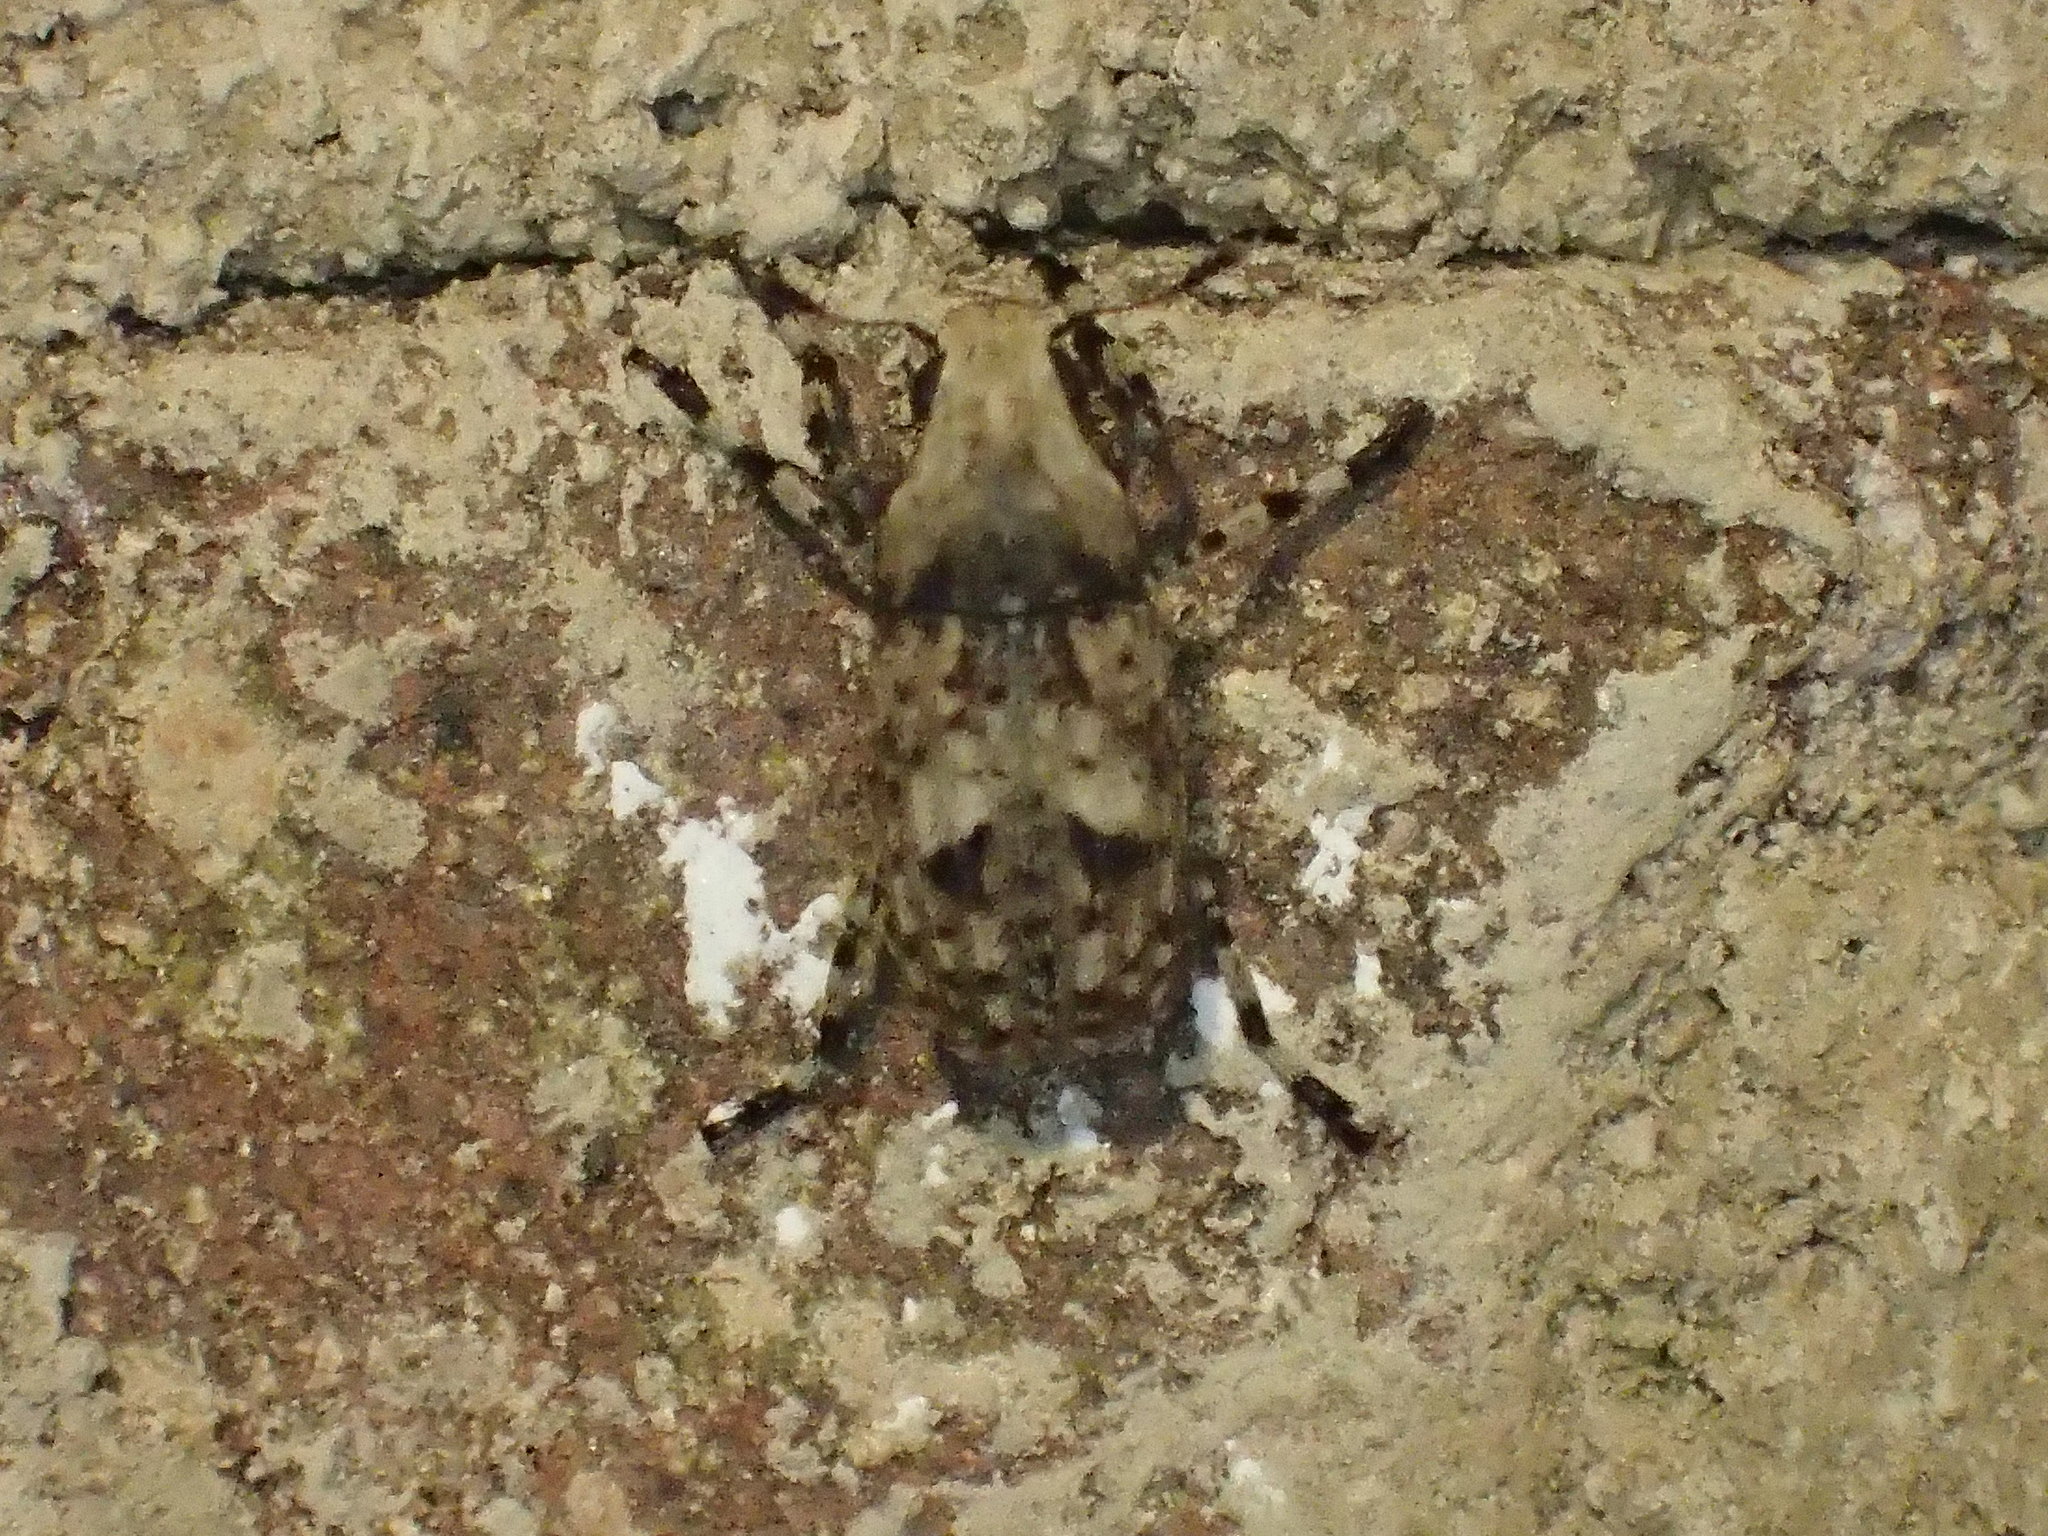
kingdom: Animalia
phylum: Arthropoda
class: Insecta
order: Coleoptera
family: Anthribidae
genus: Euparius
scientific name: Euparius marmoreus
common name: Marbled fungus weevil
